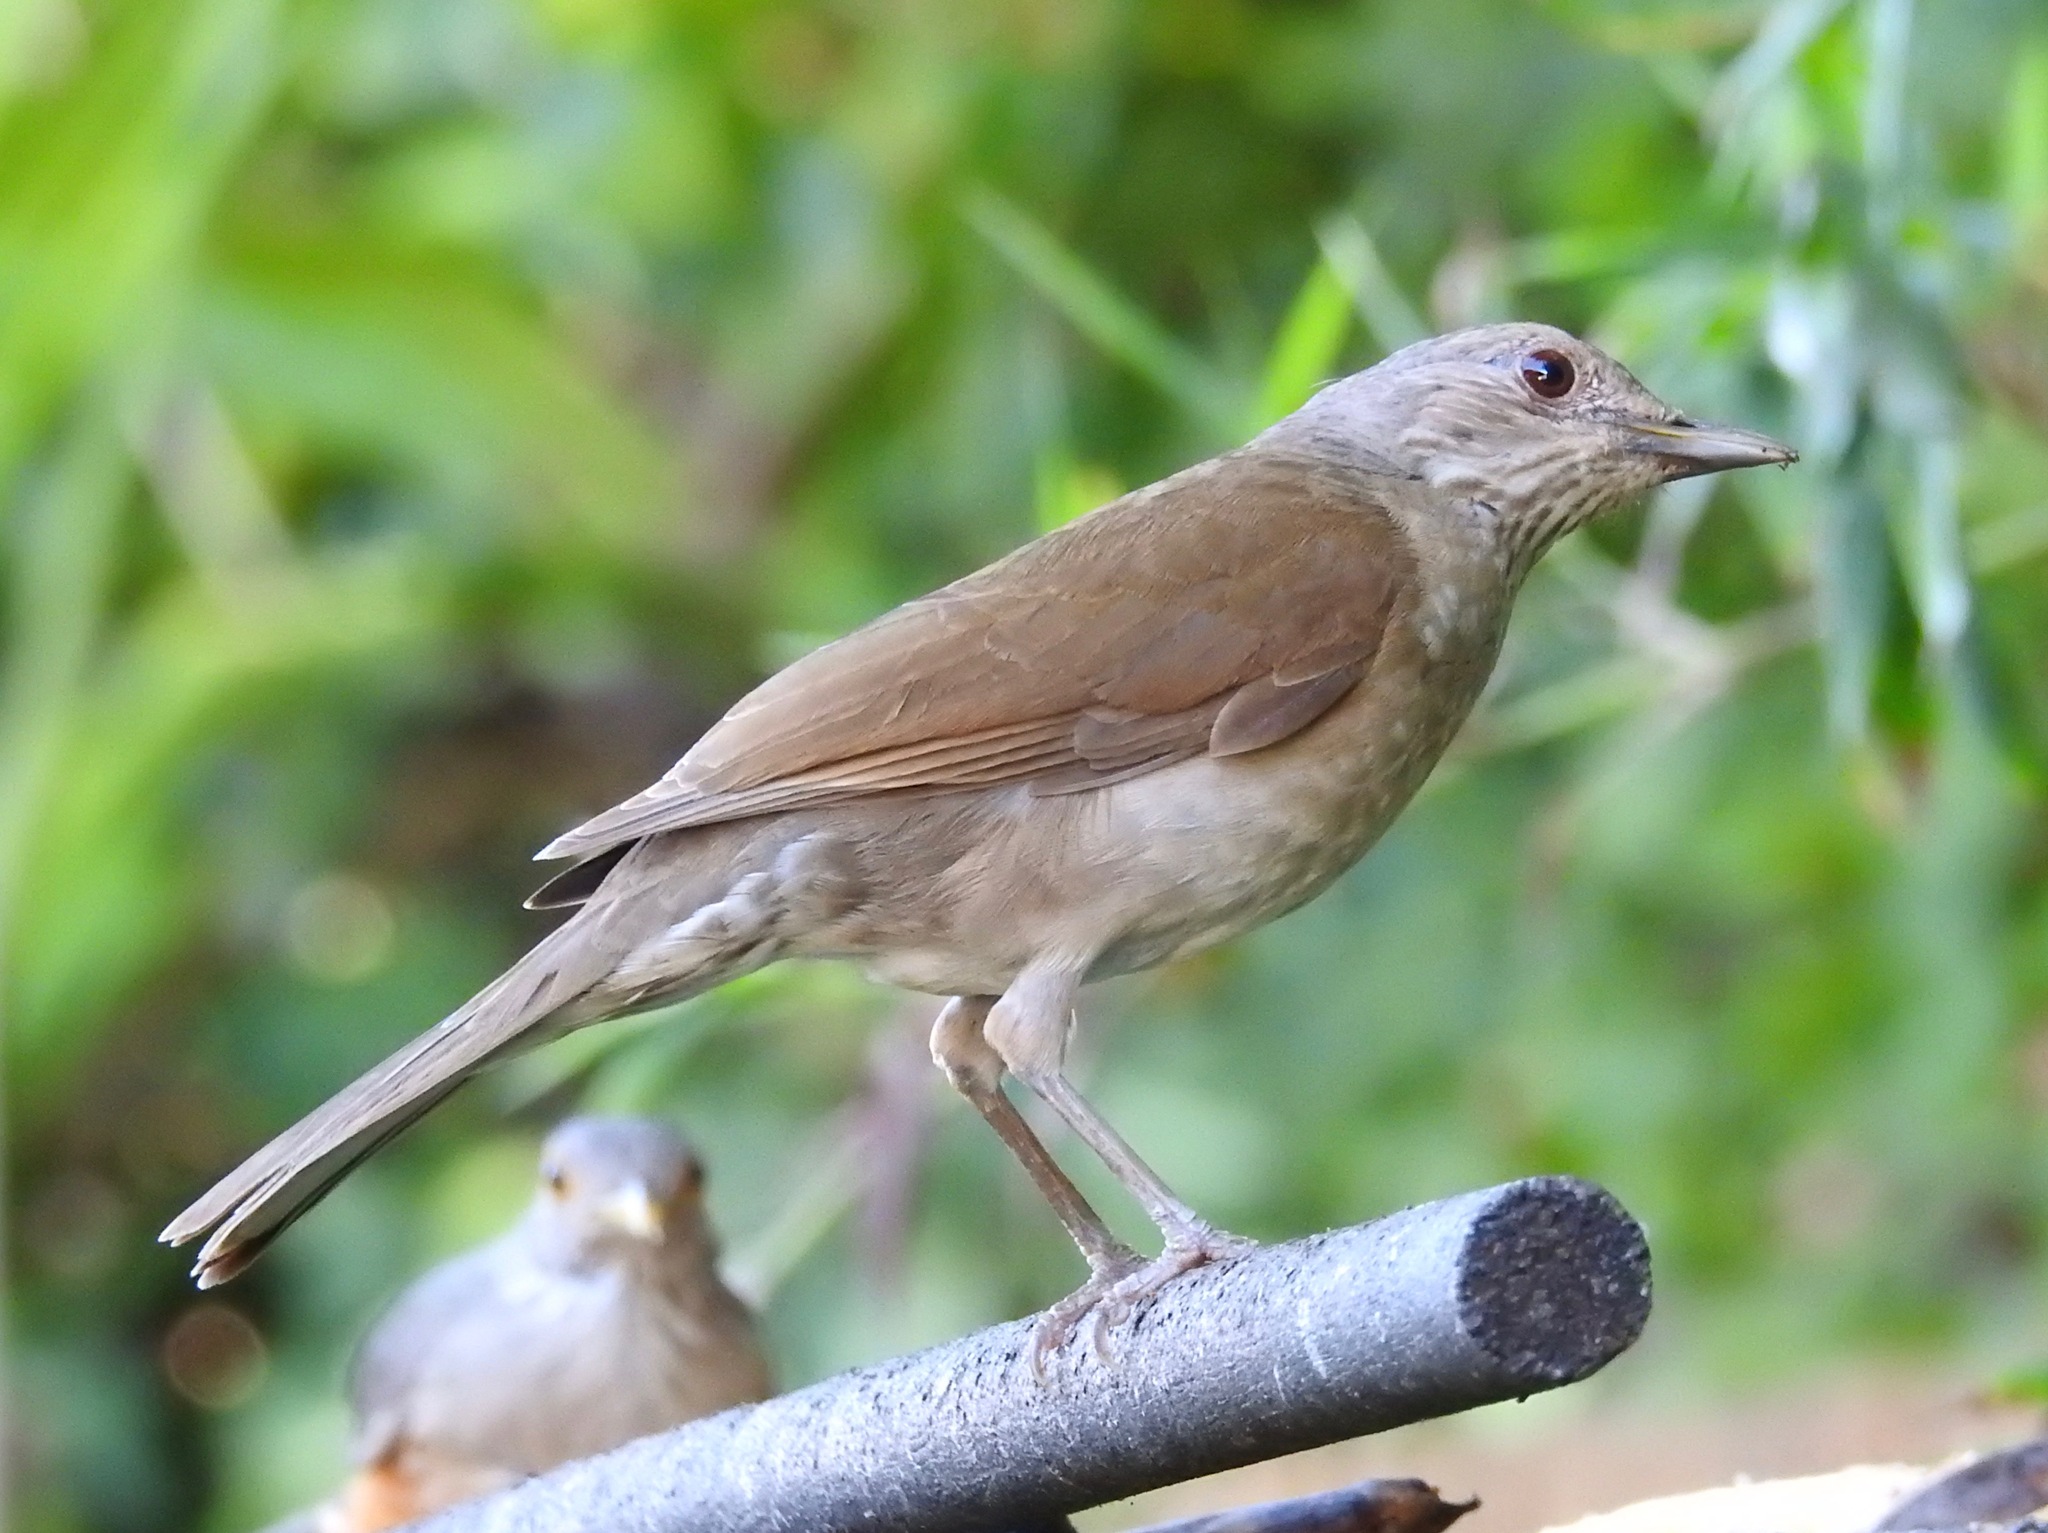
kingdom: Animalia
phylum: Chordata
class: Aves
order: Passeriformes
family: Turdidae
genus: Turdus
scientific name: Turdus leucomelas
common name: Pale-breasted thrush
